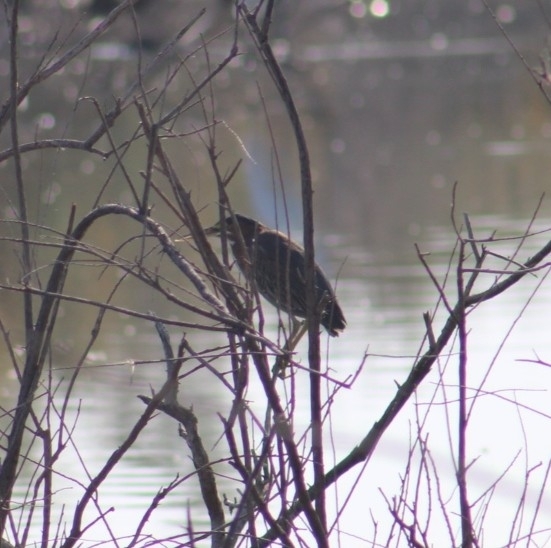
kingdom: Animalia
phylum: Chordata
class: Aves
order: Pelecaniformes
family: Ardeidae
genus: Butorides
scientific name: Butorides virescens
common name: Green heron
